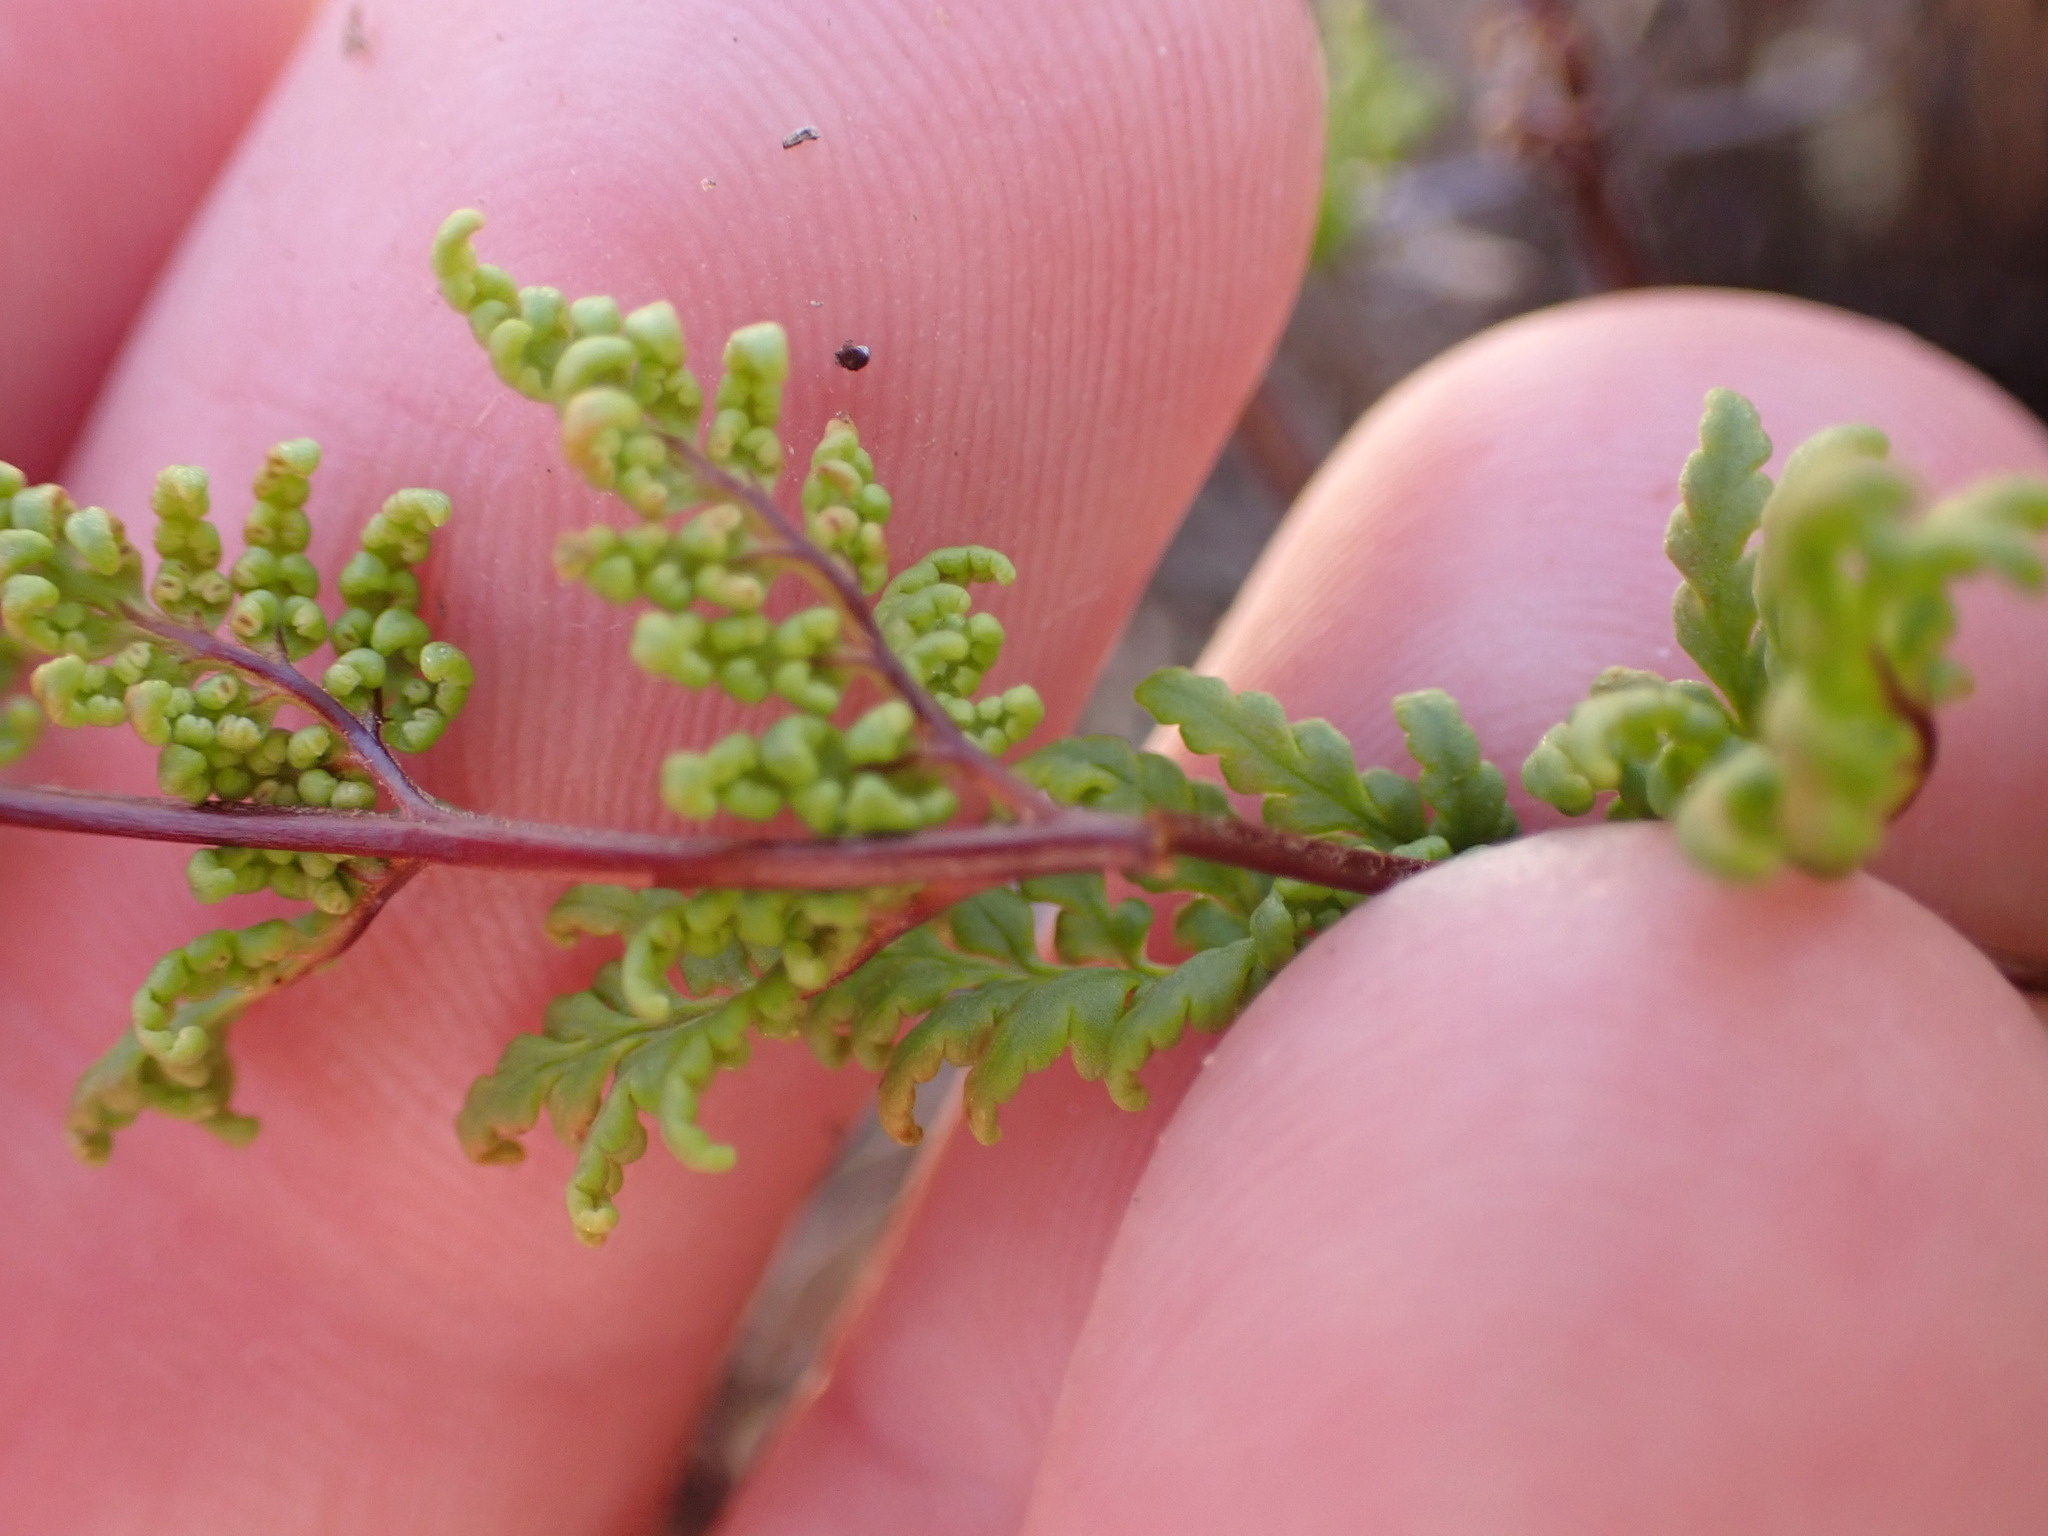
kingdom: Plantae
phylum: Tracheophyta
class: Polypodiopsida
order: Polypodiales
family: Pteridaceae
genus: Cheilanthes
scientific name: Cheilanthes sieberi
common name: Mulga fern
